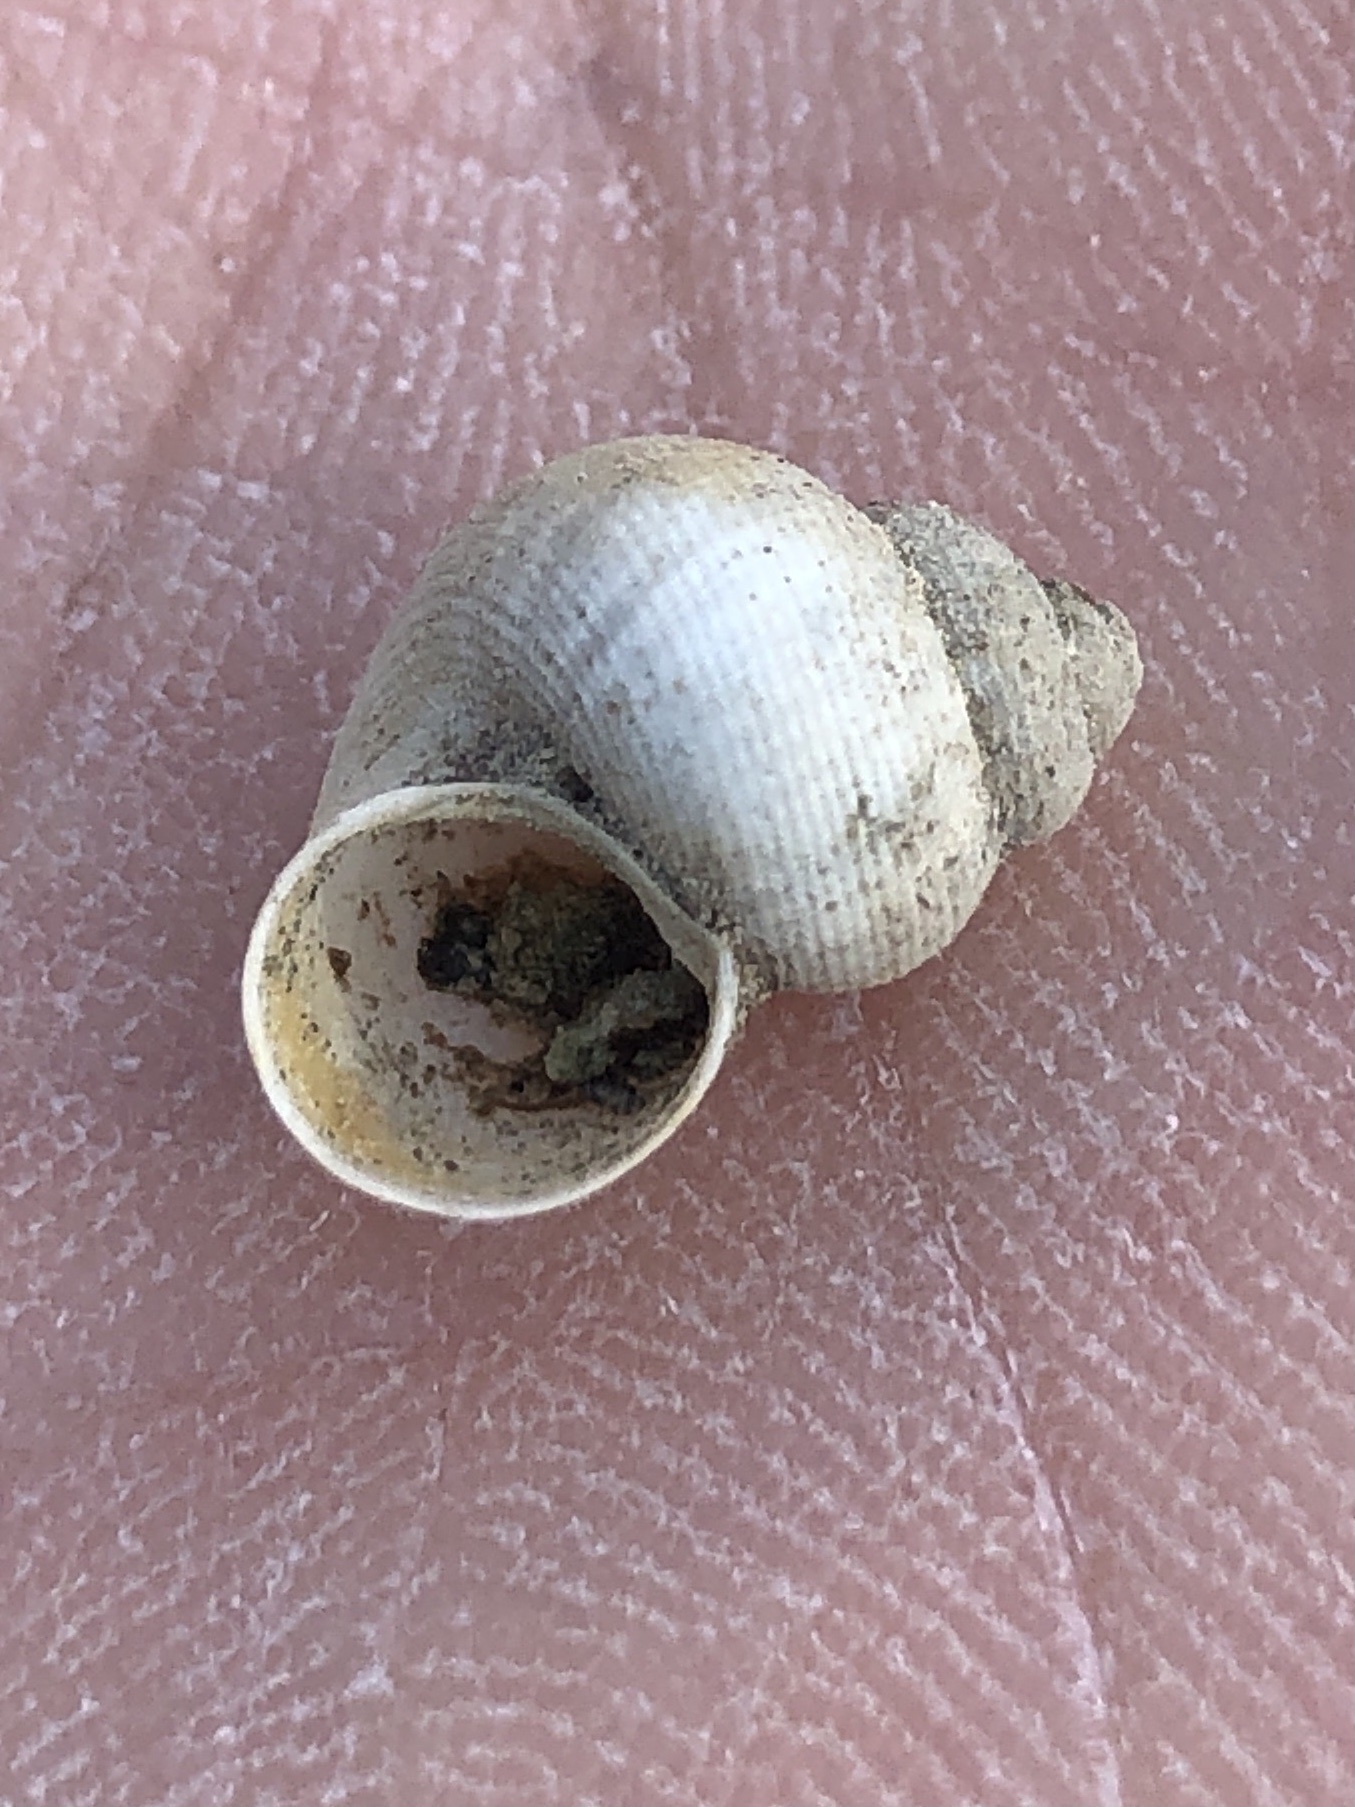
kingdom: Animalia
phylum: Mollusca
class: Gastropoda
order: Littorinimorpha
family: Pomatiidae
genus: Pomatias
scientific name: Pomatias elegans
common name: Red-mouthed snail
